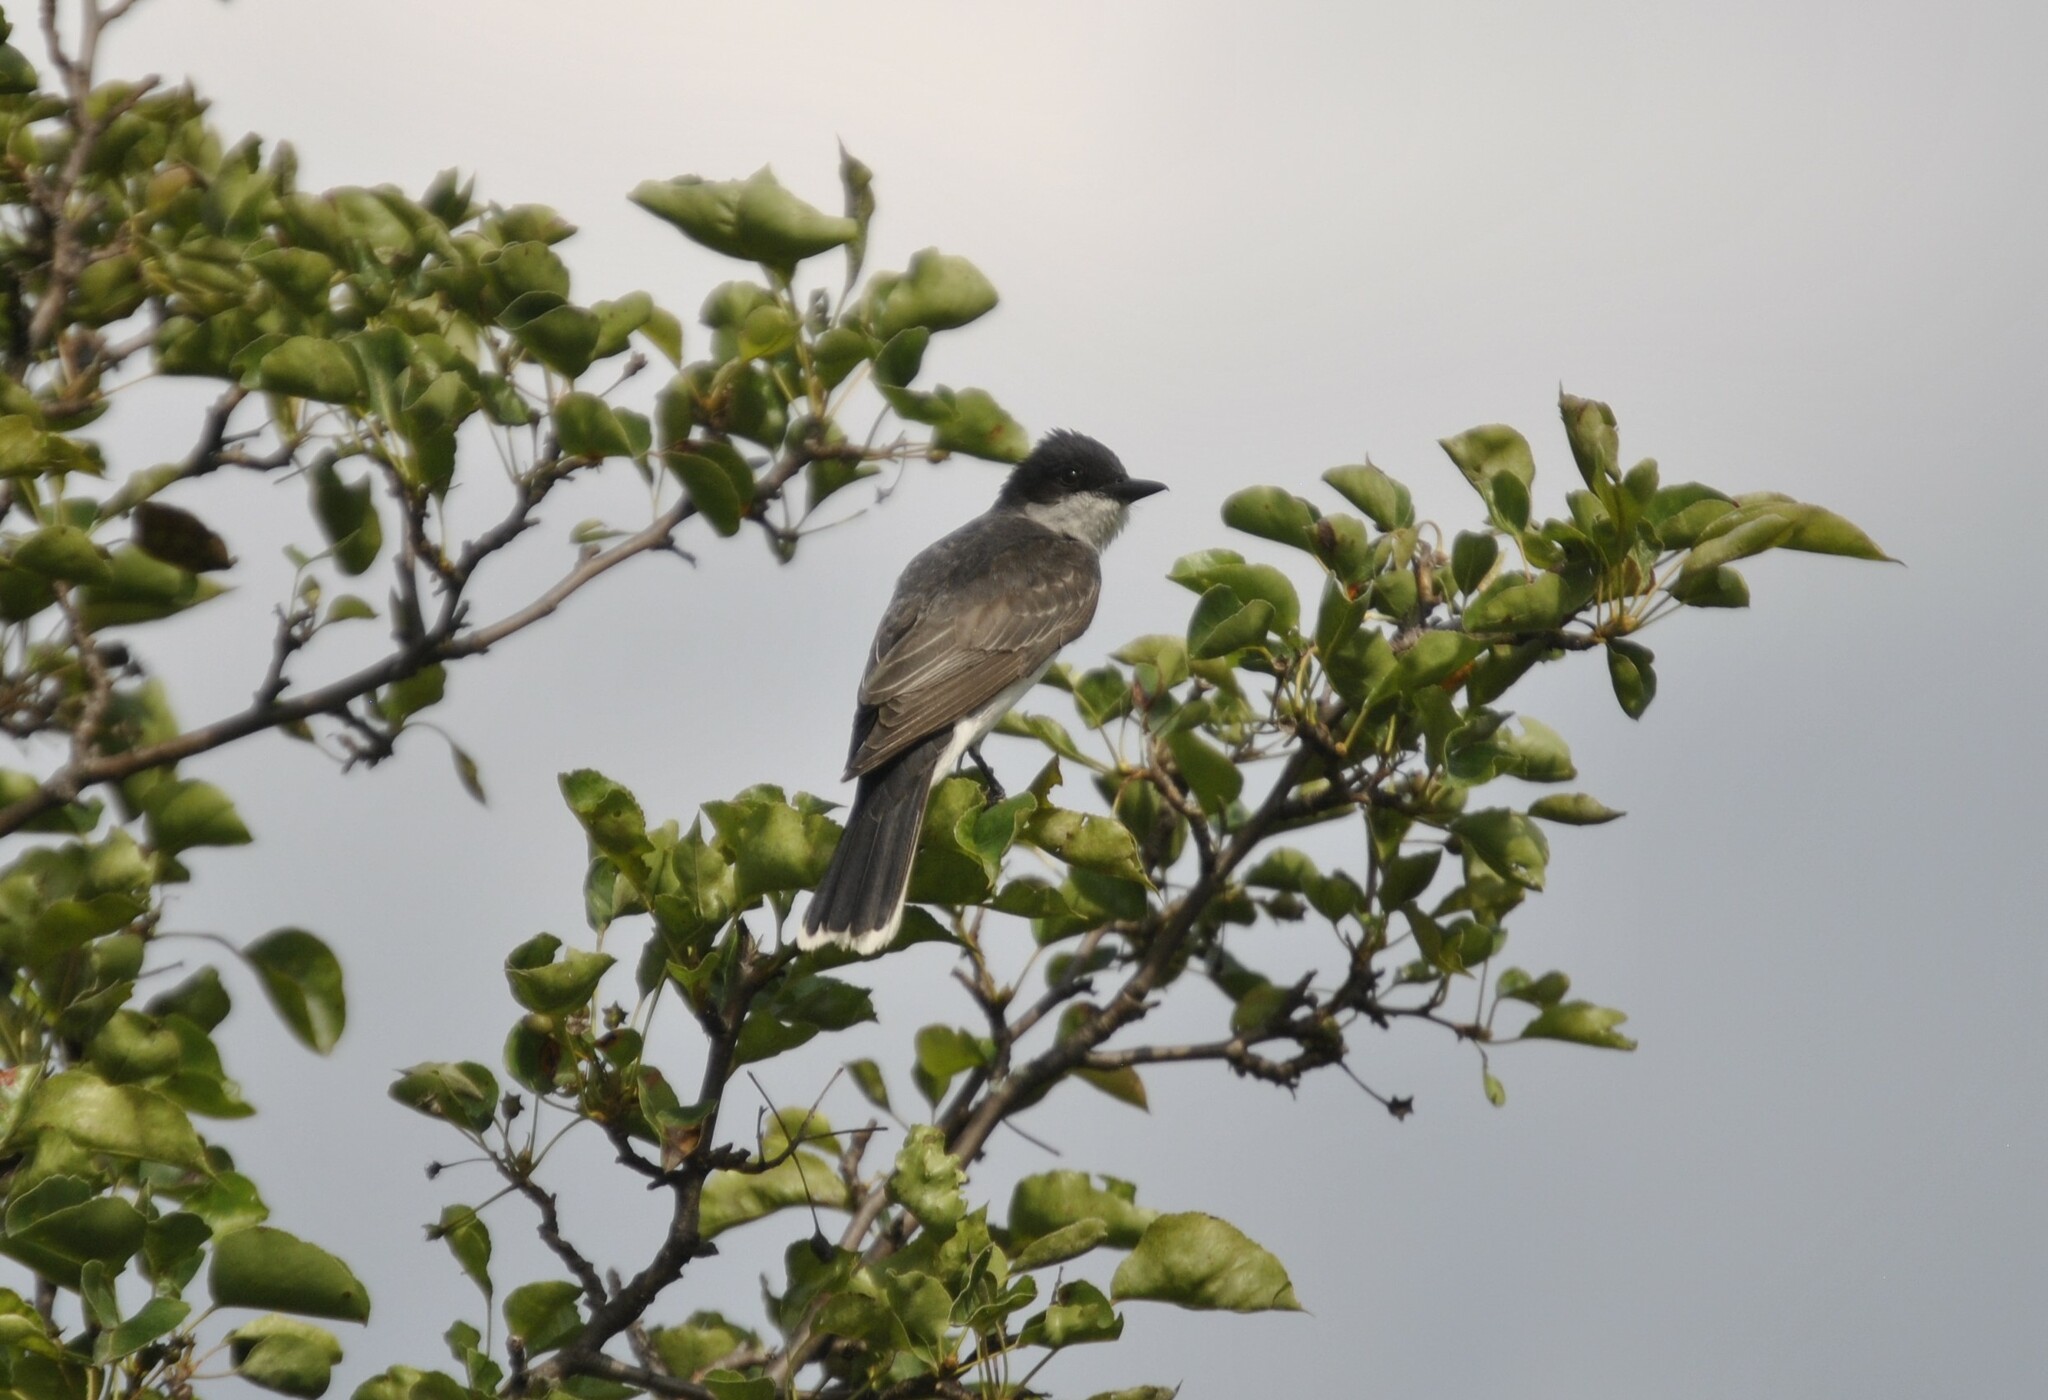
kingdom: Animalia
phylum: Chordata
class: Aves
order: Passeriformes
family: Tyrannidae
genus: Tyrannus
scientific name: Tyrannus tyrannus
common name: Eastern kingbird
